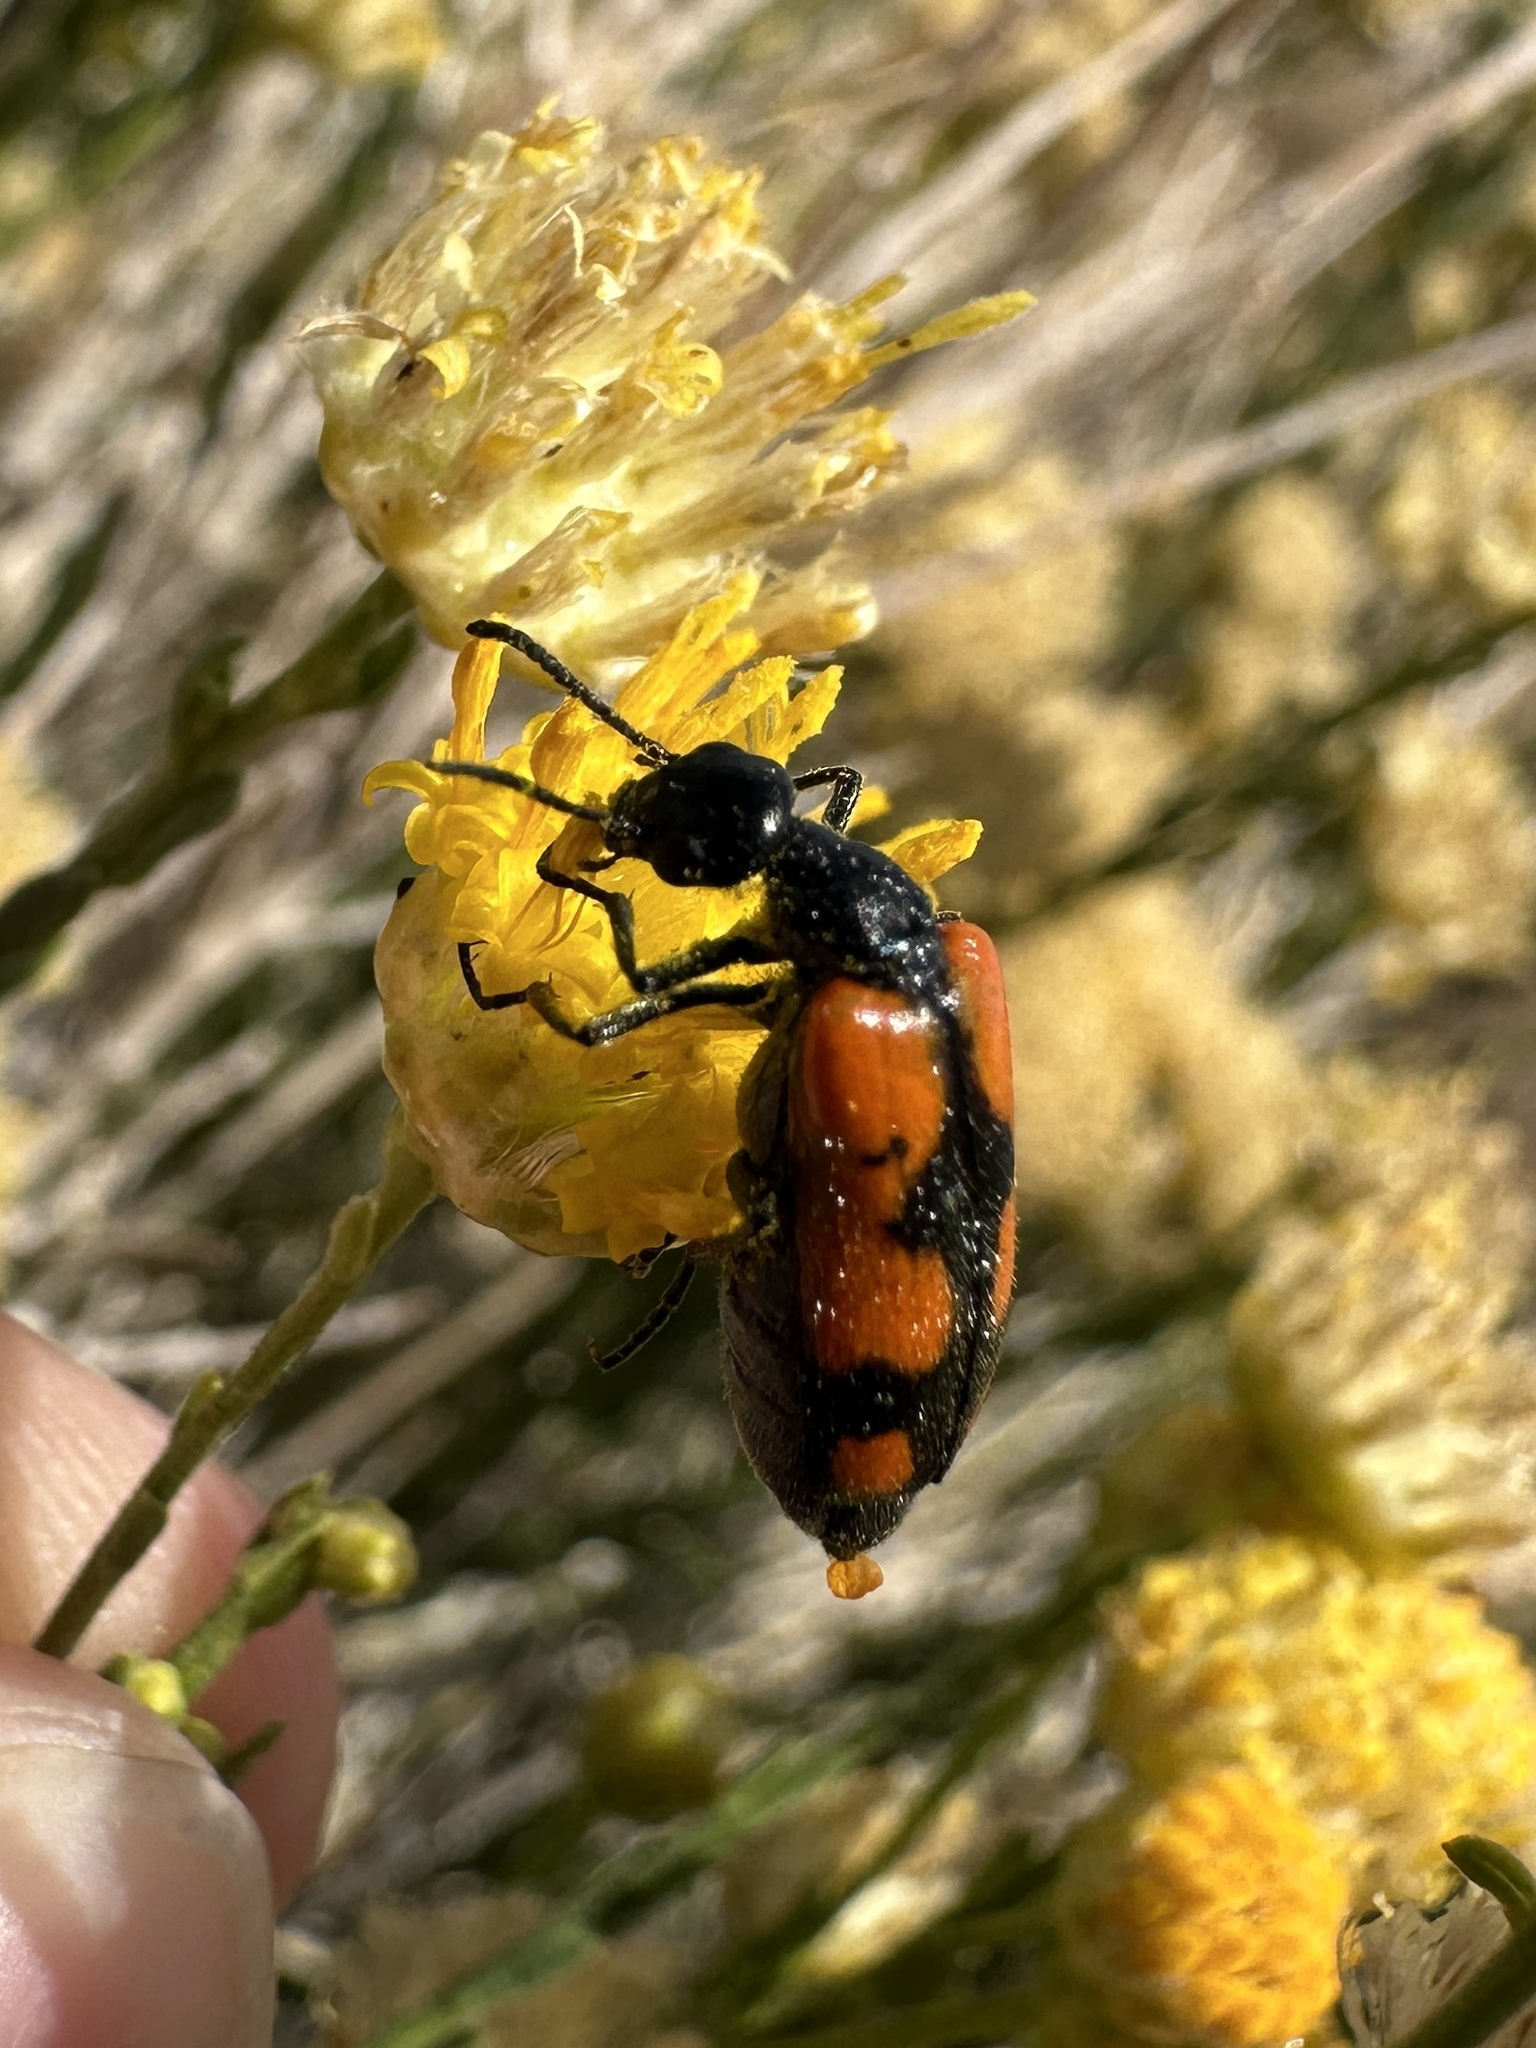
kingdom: Animalia
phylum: Arthropoda
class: Insecta
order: Coleoptera
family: Meloidae
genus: Eupompha
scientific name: Eupompha elegans
